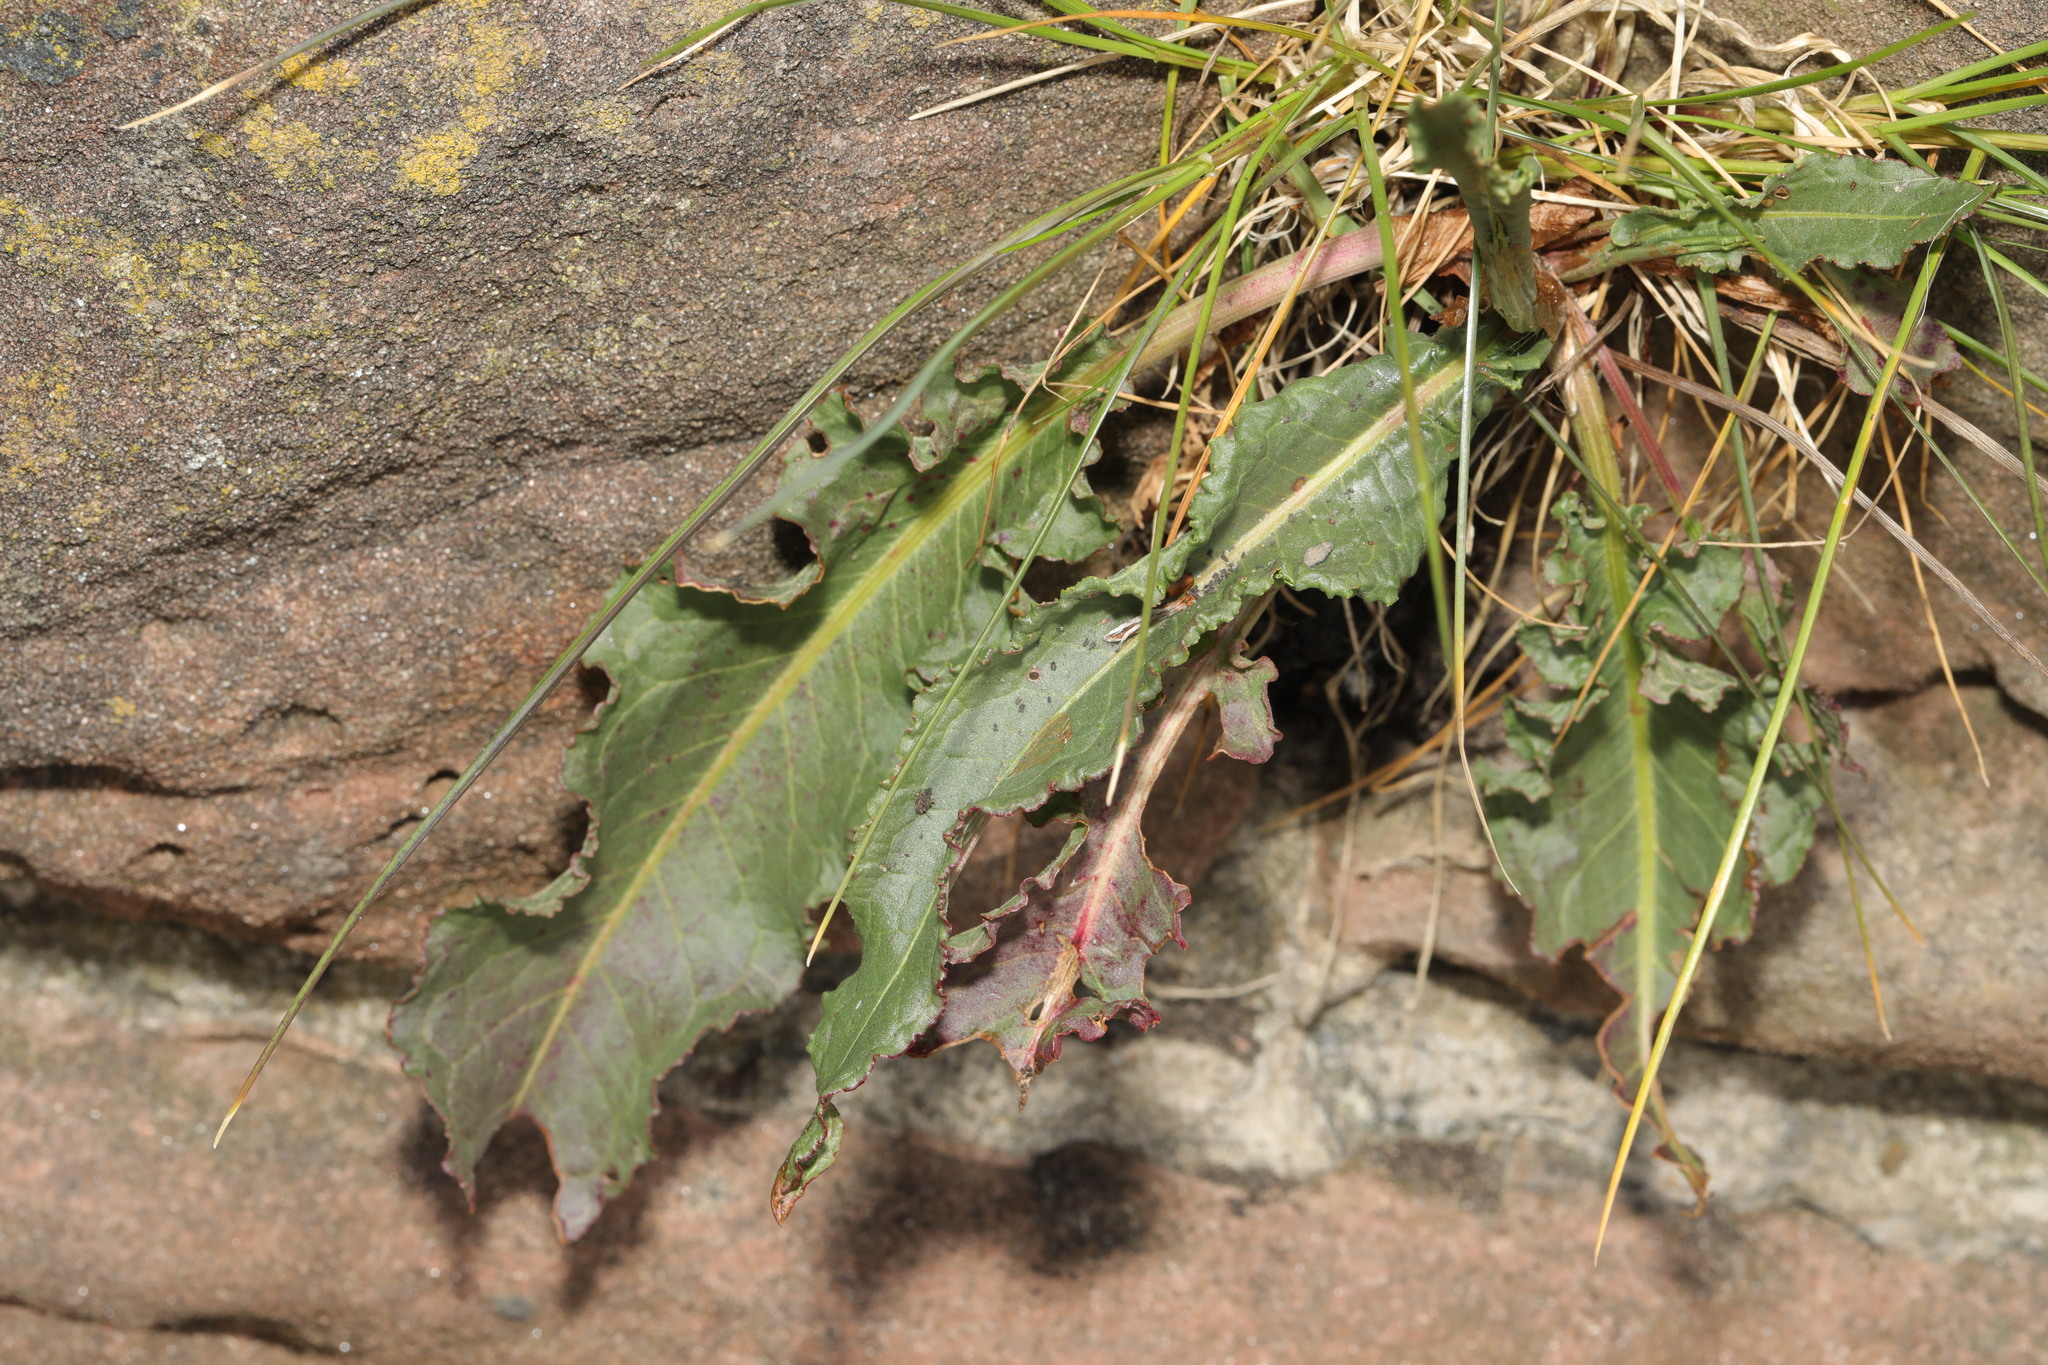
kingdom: Plantae
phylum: Tracheophyta
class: Magnoliopsida
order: Caryophyllales
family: Polygonaceae
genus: Rumex
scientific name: Rumex crispus
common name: Curled dock
